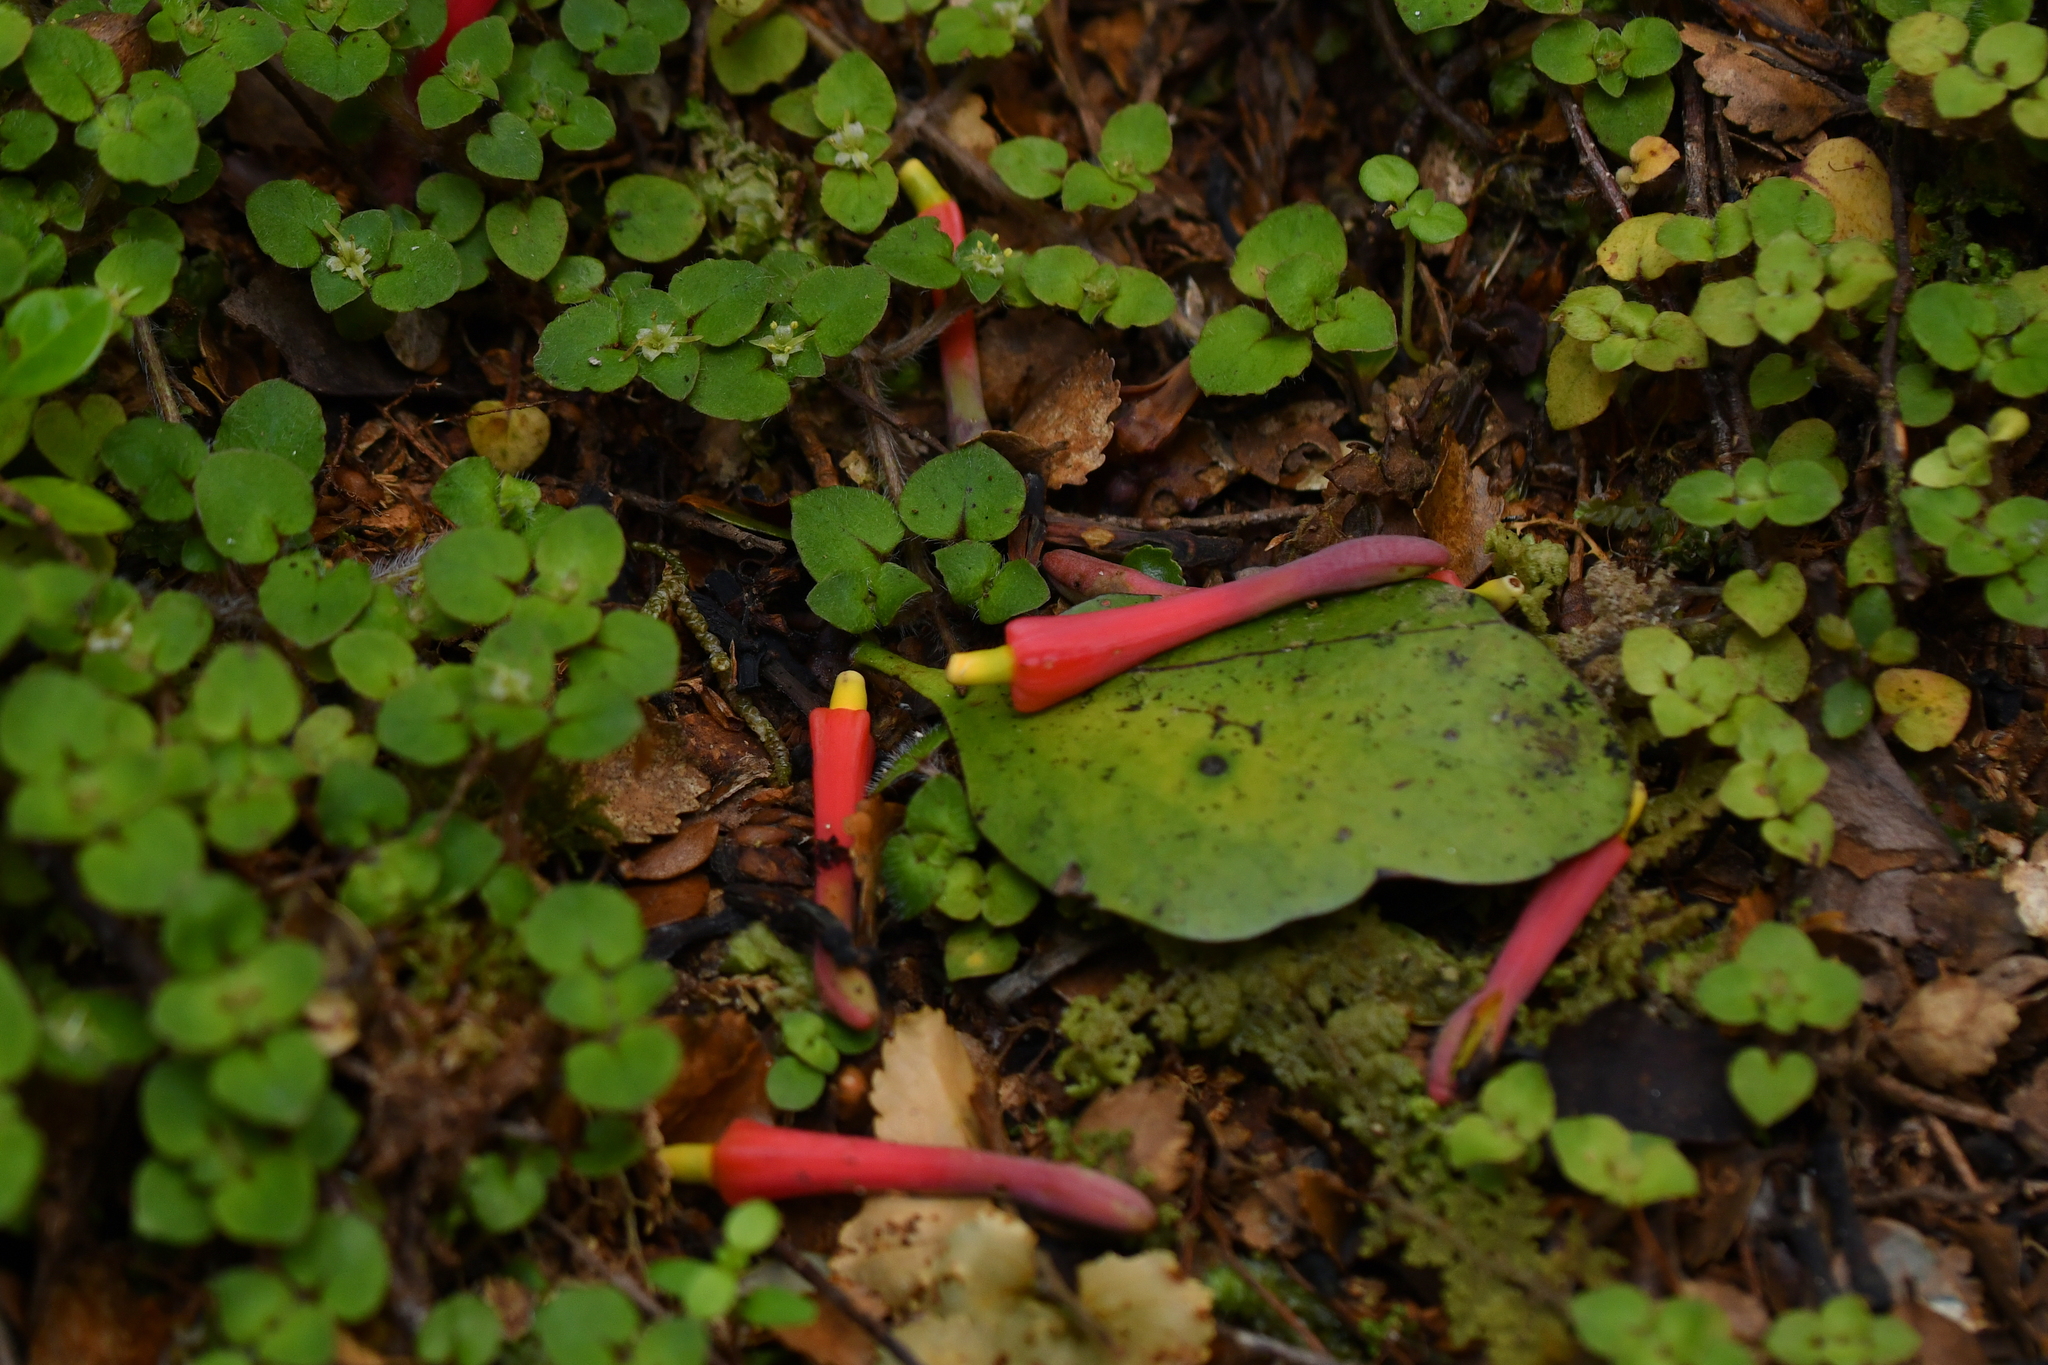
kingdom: Plantae
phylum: Tracheophyta
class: Magnoliopsida
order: Santalales
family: Loranthaceae
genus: Peraxilla
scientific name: Peraxilla colensoi
